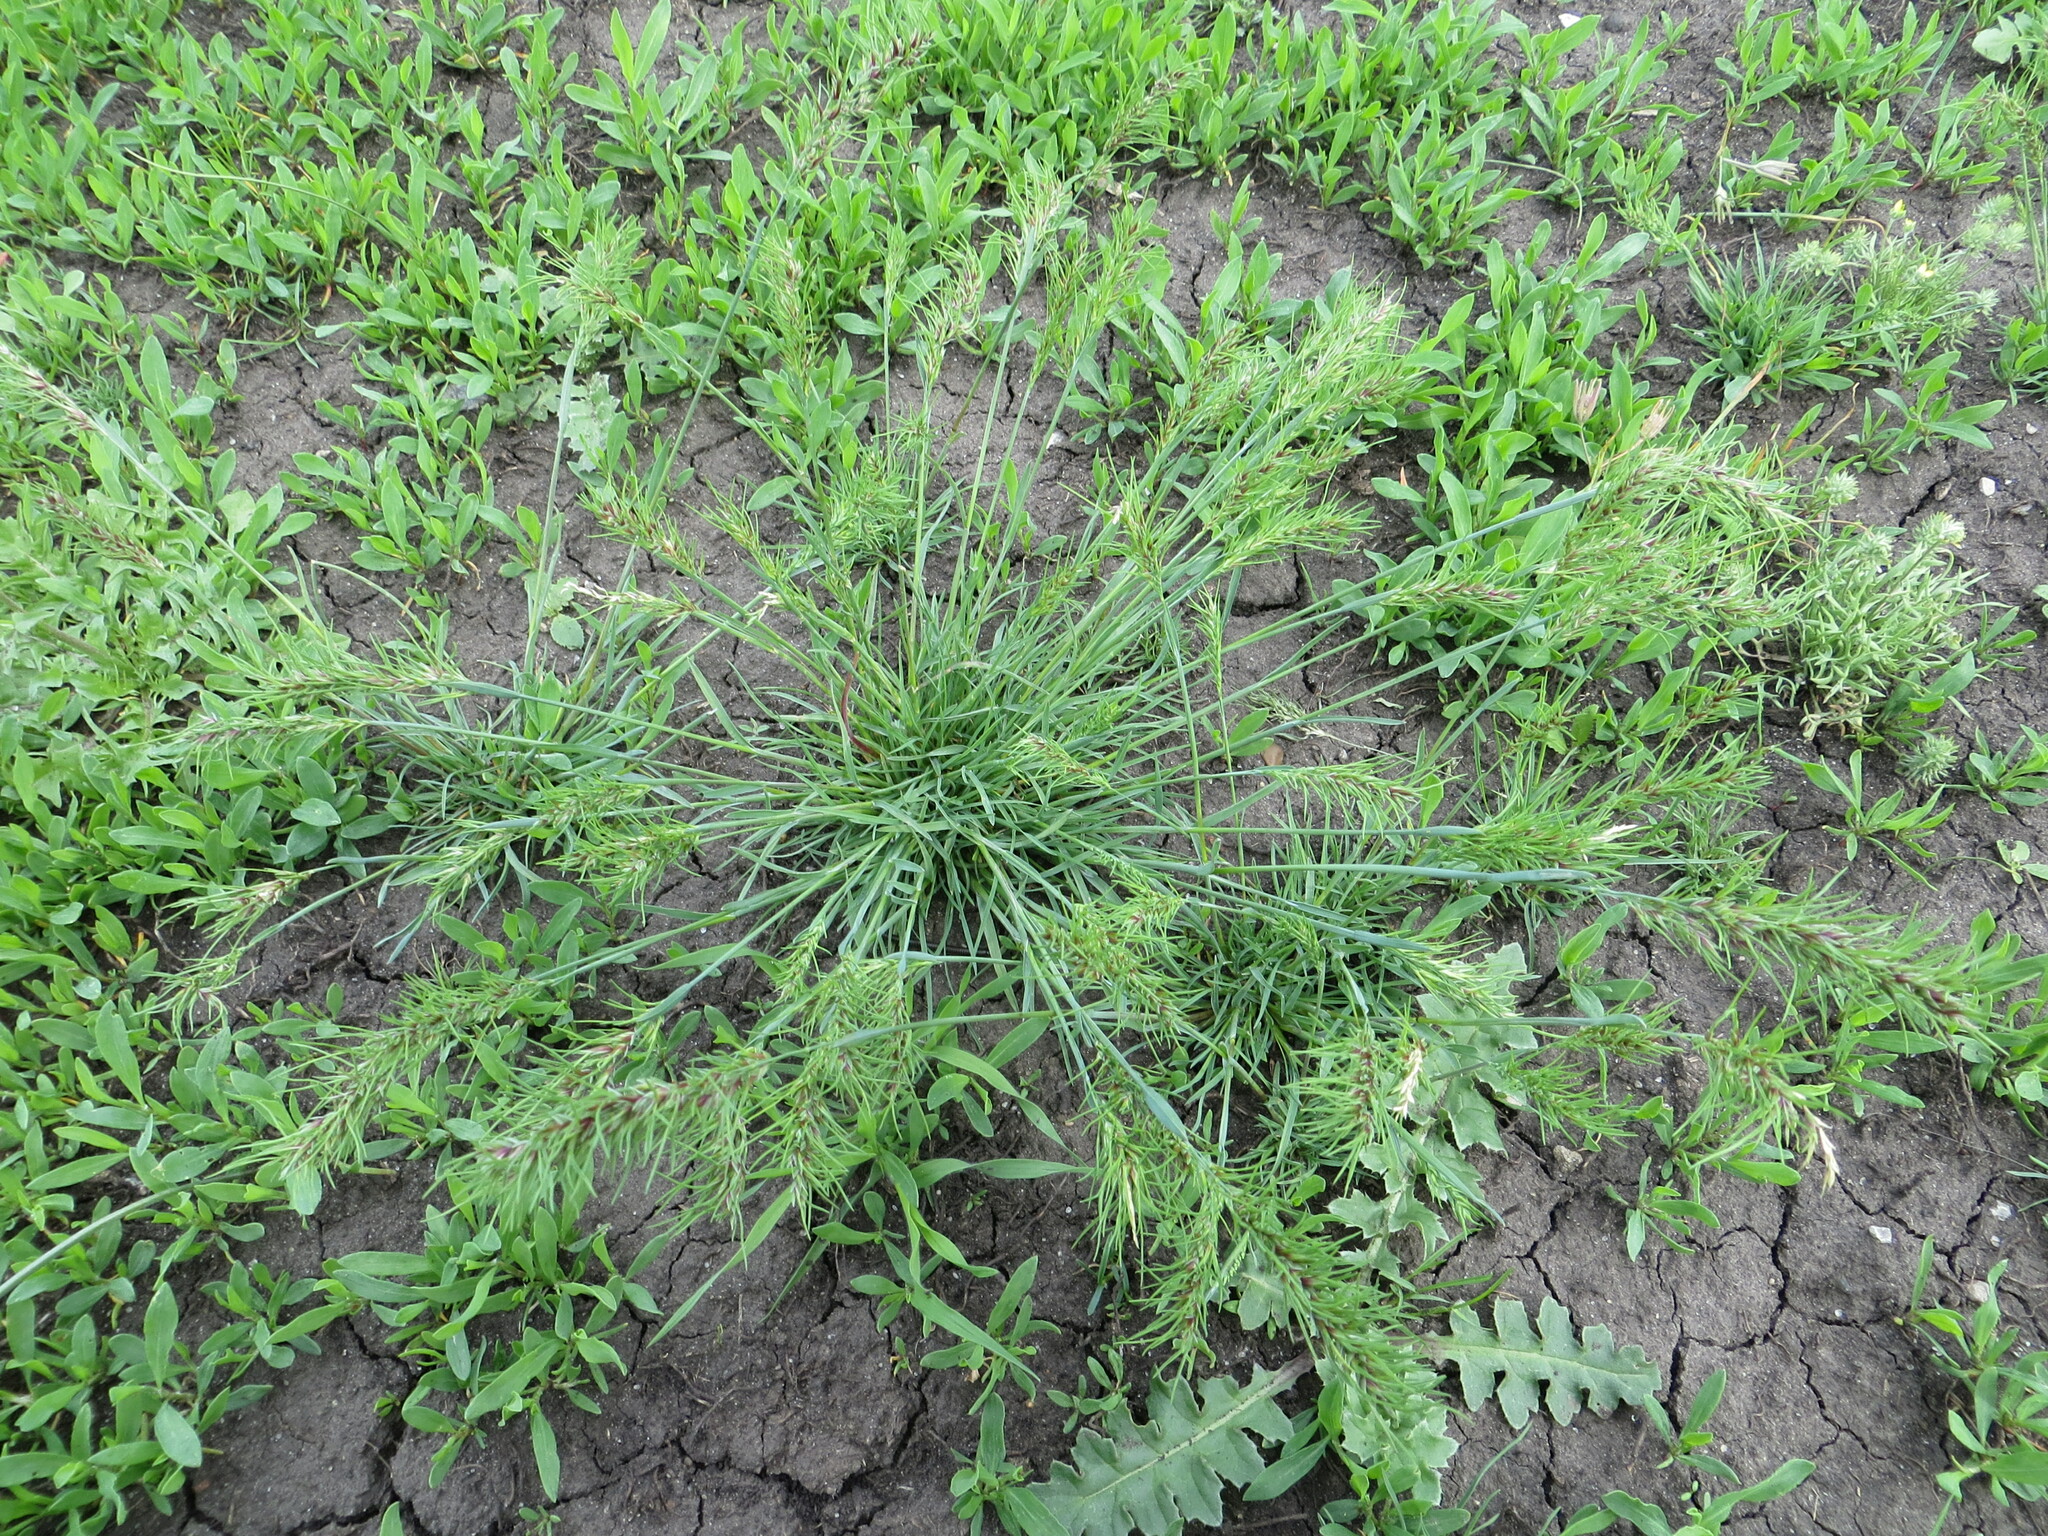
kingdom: Plantae
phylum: Tracheophyta
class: Liliopsida
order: Poales
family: Poaceae
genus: Poa
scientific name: Poa bulbosa
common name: Bulbous bluegrass
